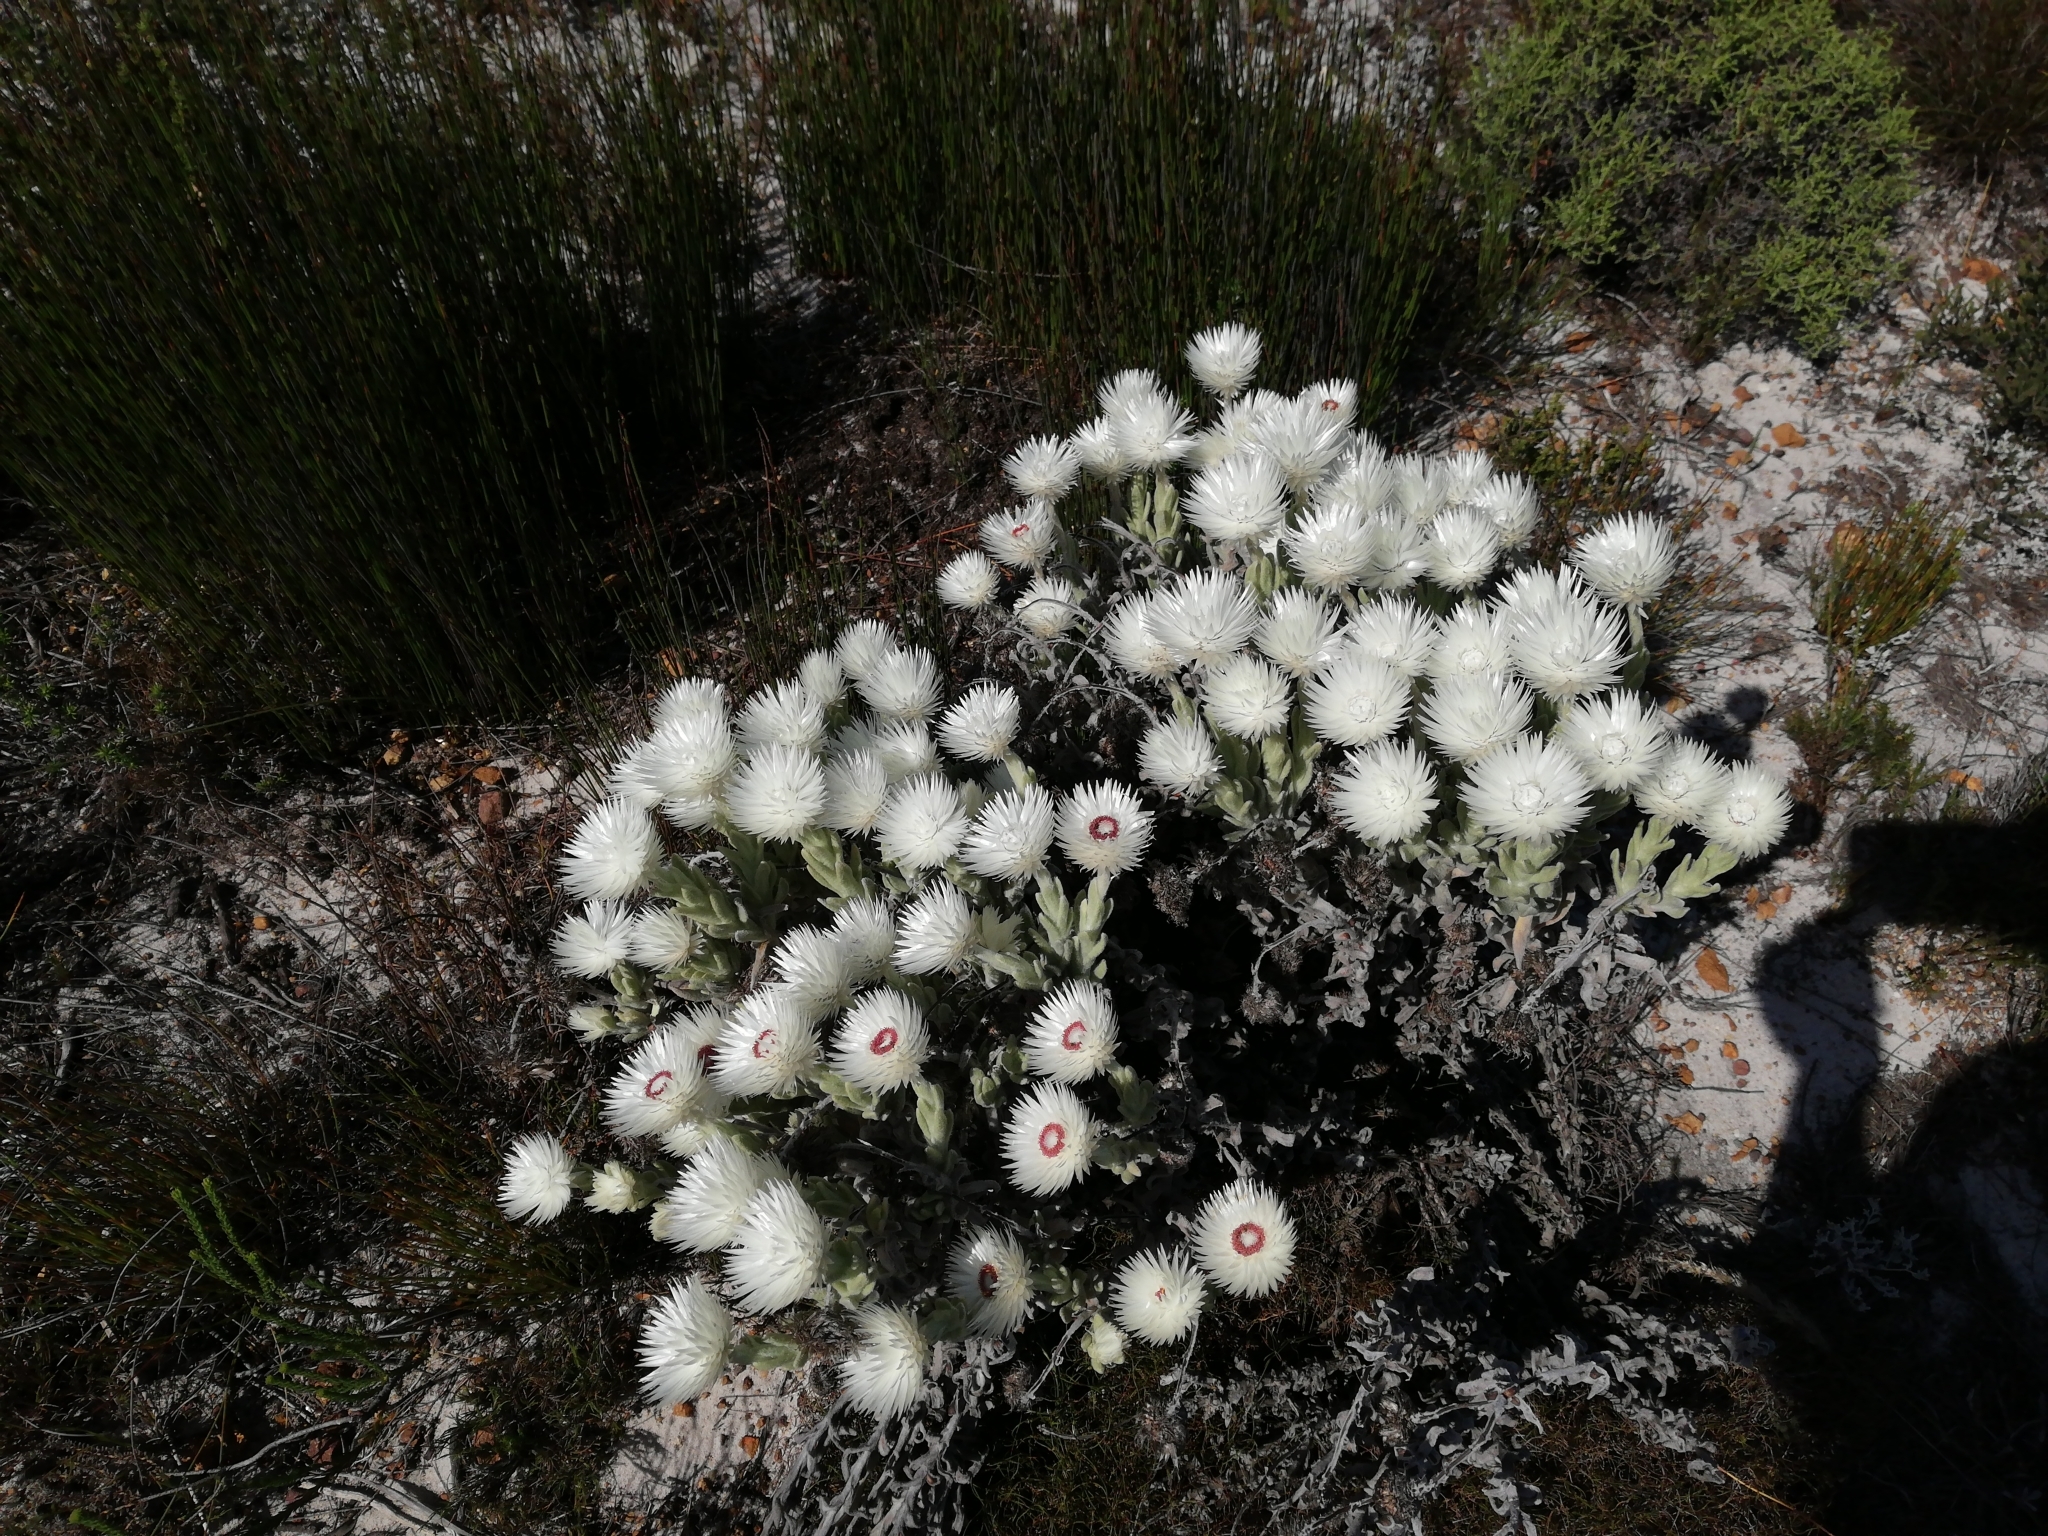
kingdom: Plantae
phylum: Tracheophyta
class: Magnoliopsida
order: Asterales
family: Asteraceae
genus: Syncarpha
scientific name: Syncarpha vestita
